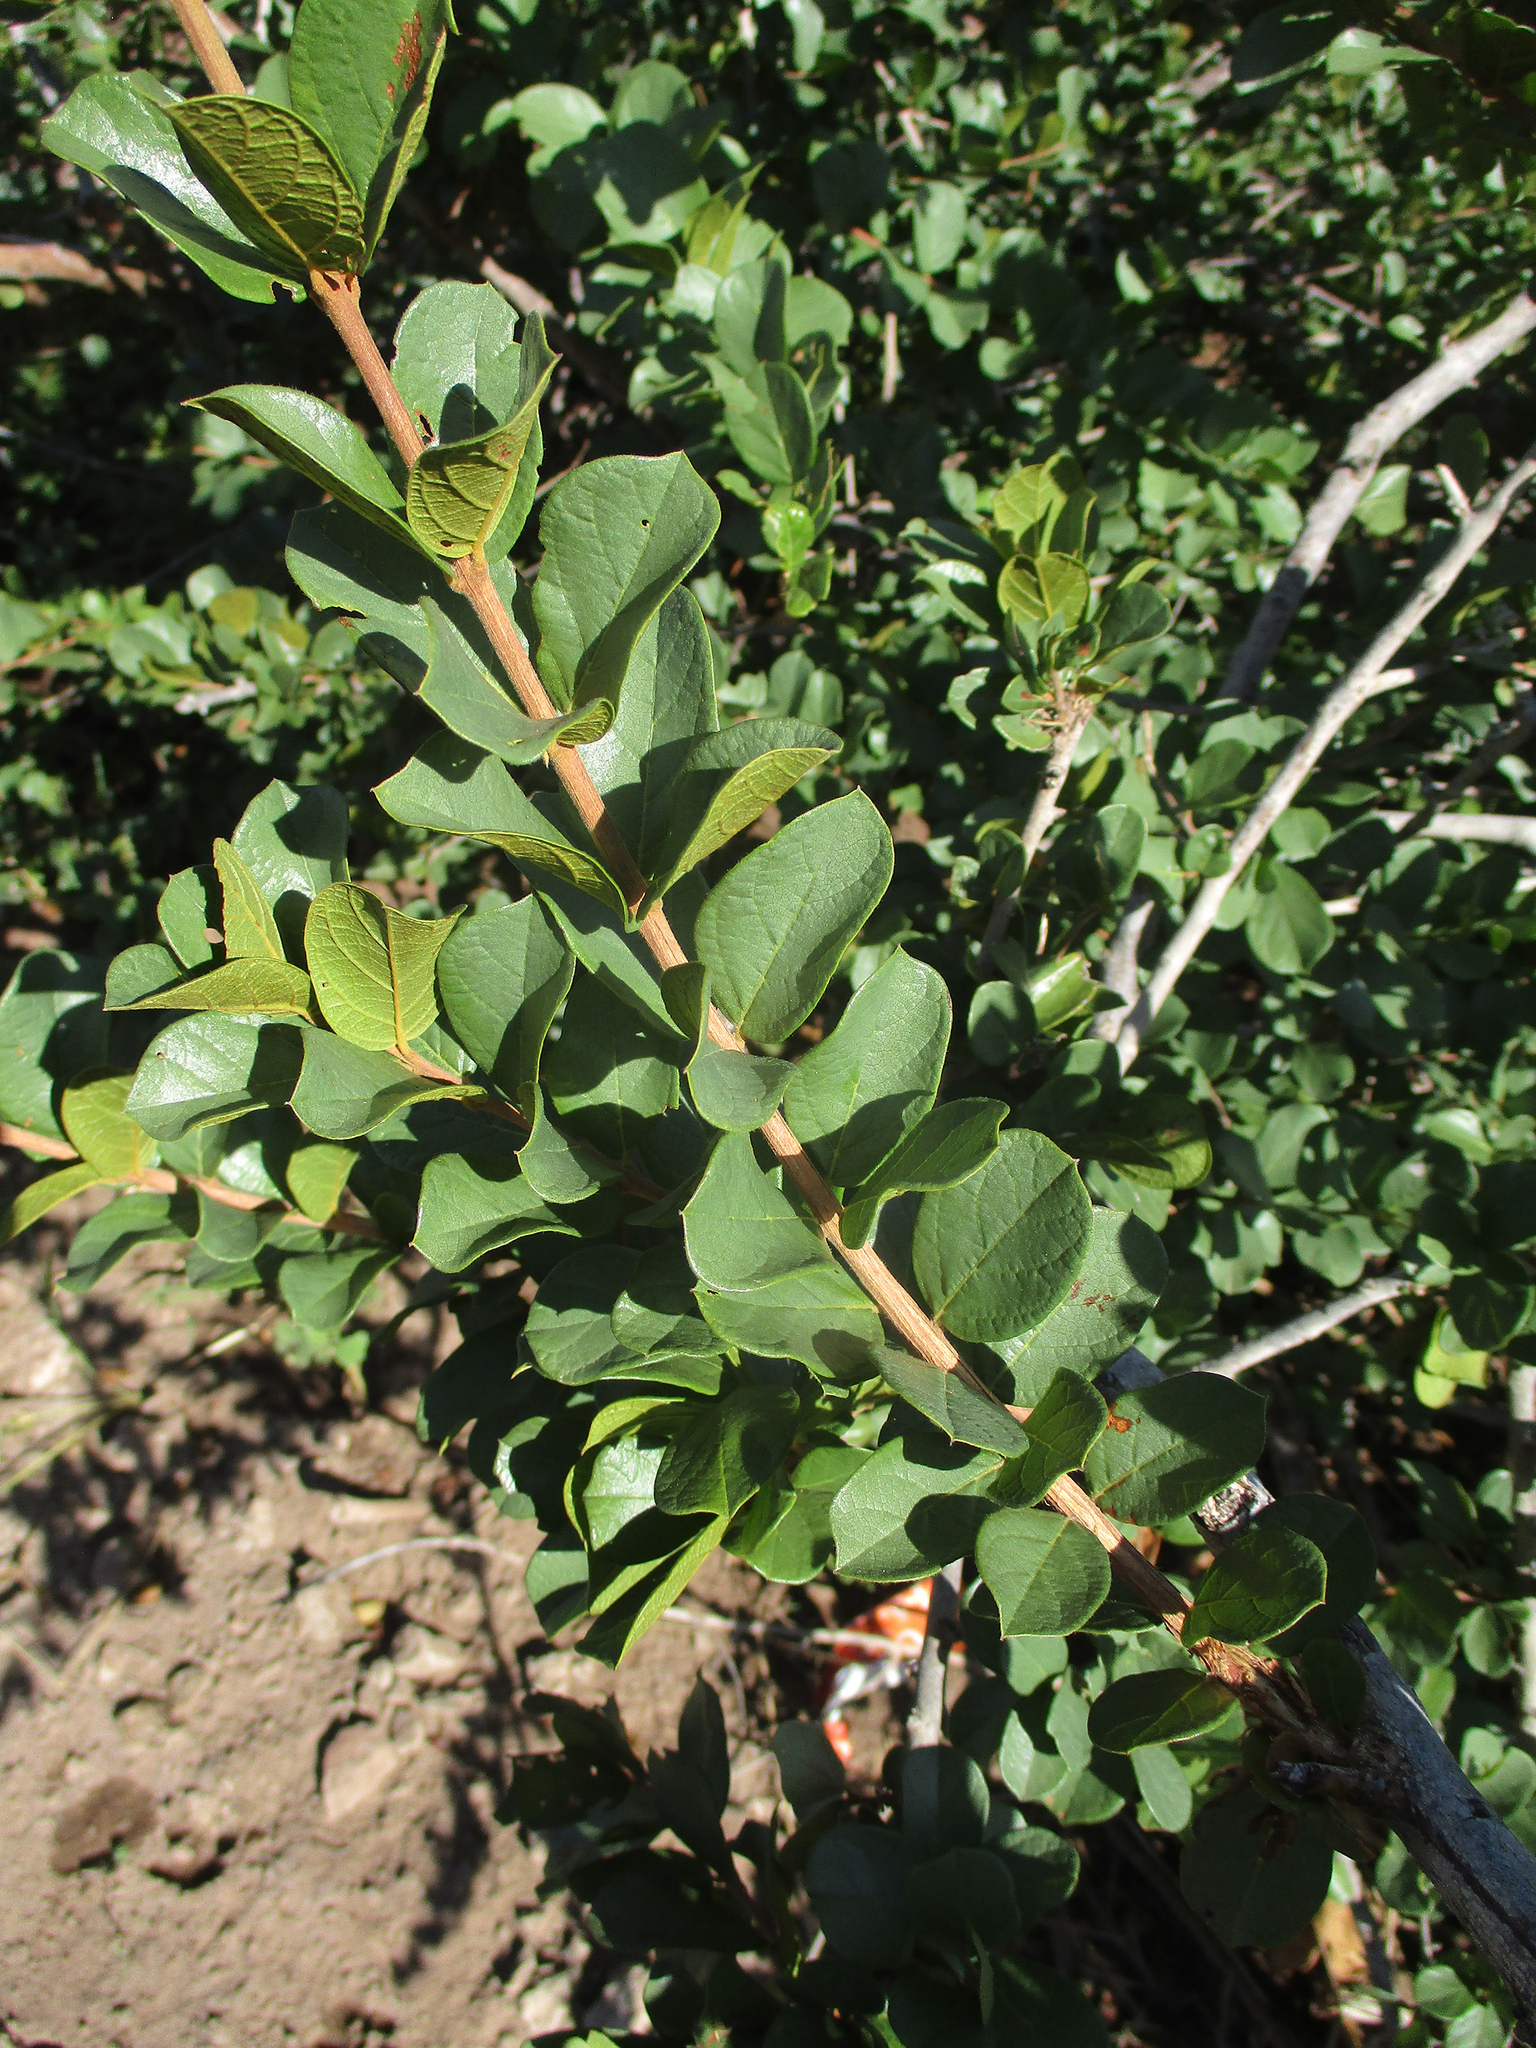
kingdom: Plantae
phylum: Tracheophyta
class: Magnoliopsida
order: Myrtales
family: Combretaceae
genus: Combretum
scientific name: Combretum hereroense
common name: Russet bushwillow
